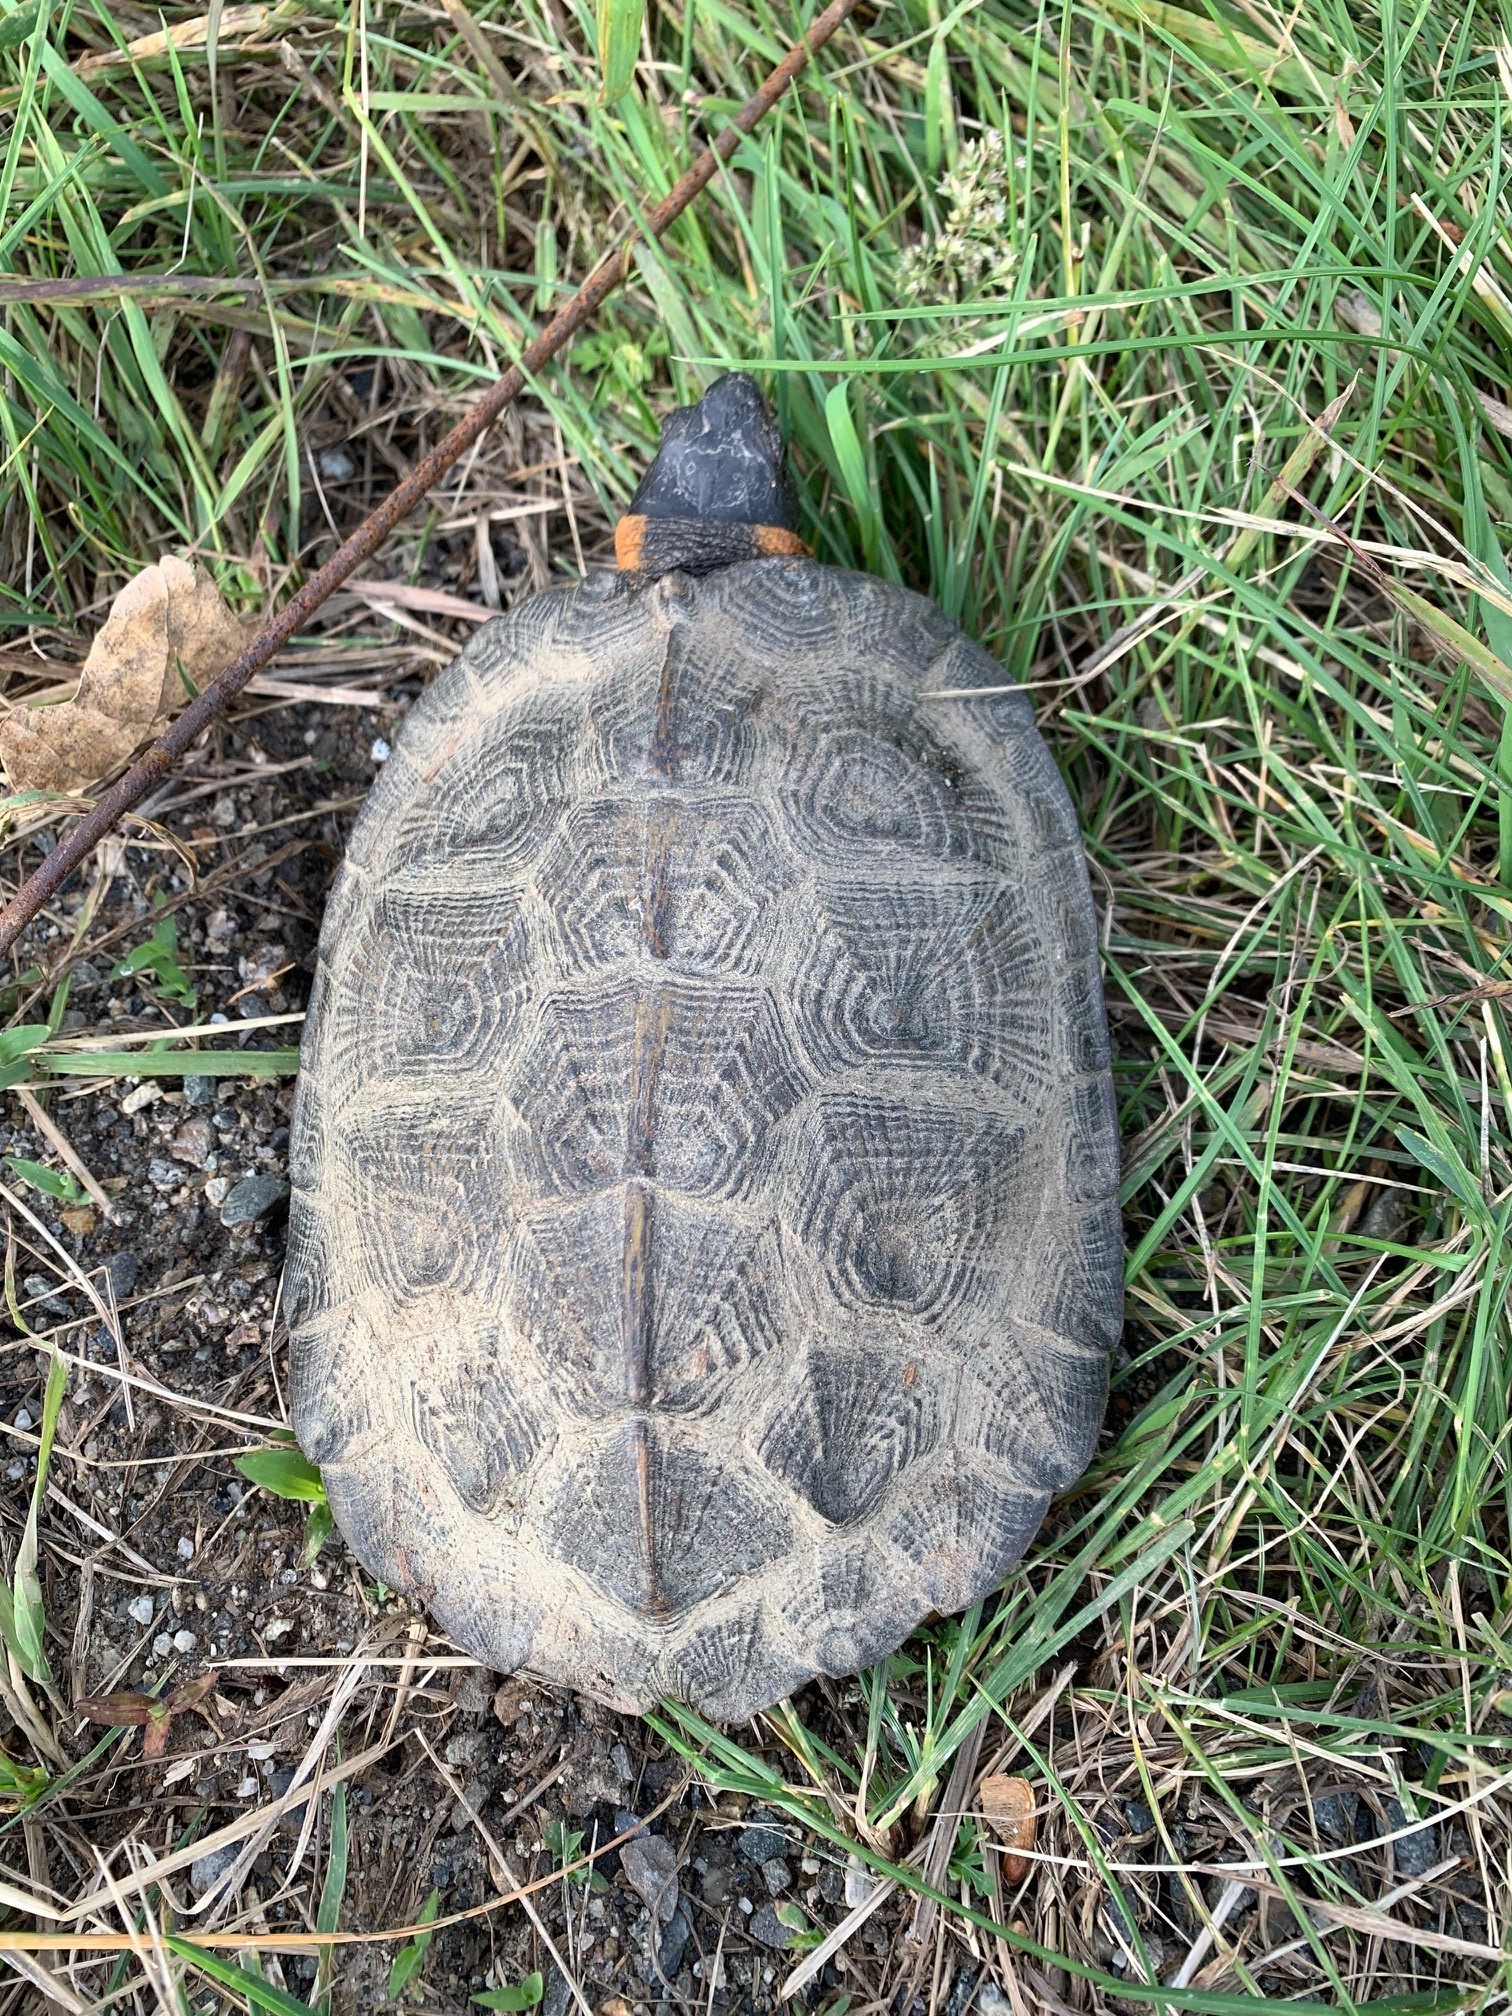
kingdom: Animalia
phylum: Chordata
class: Testudines
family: Emydidae
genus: Glyptemys
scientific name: Glyptemys insculpta
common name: Wood turtle
